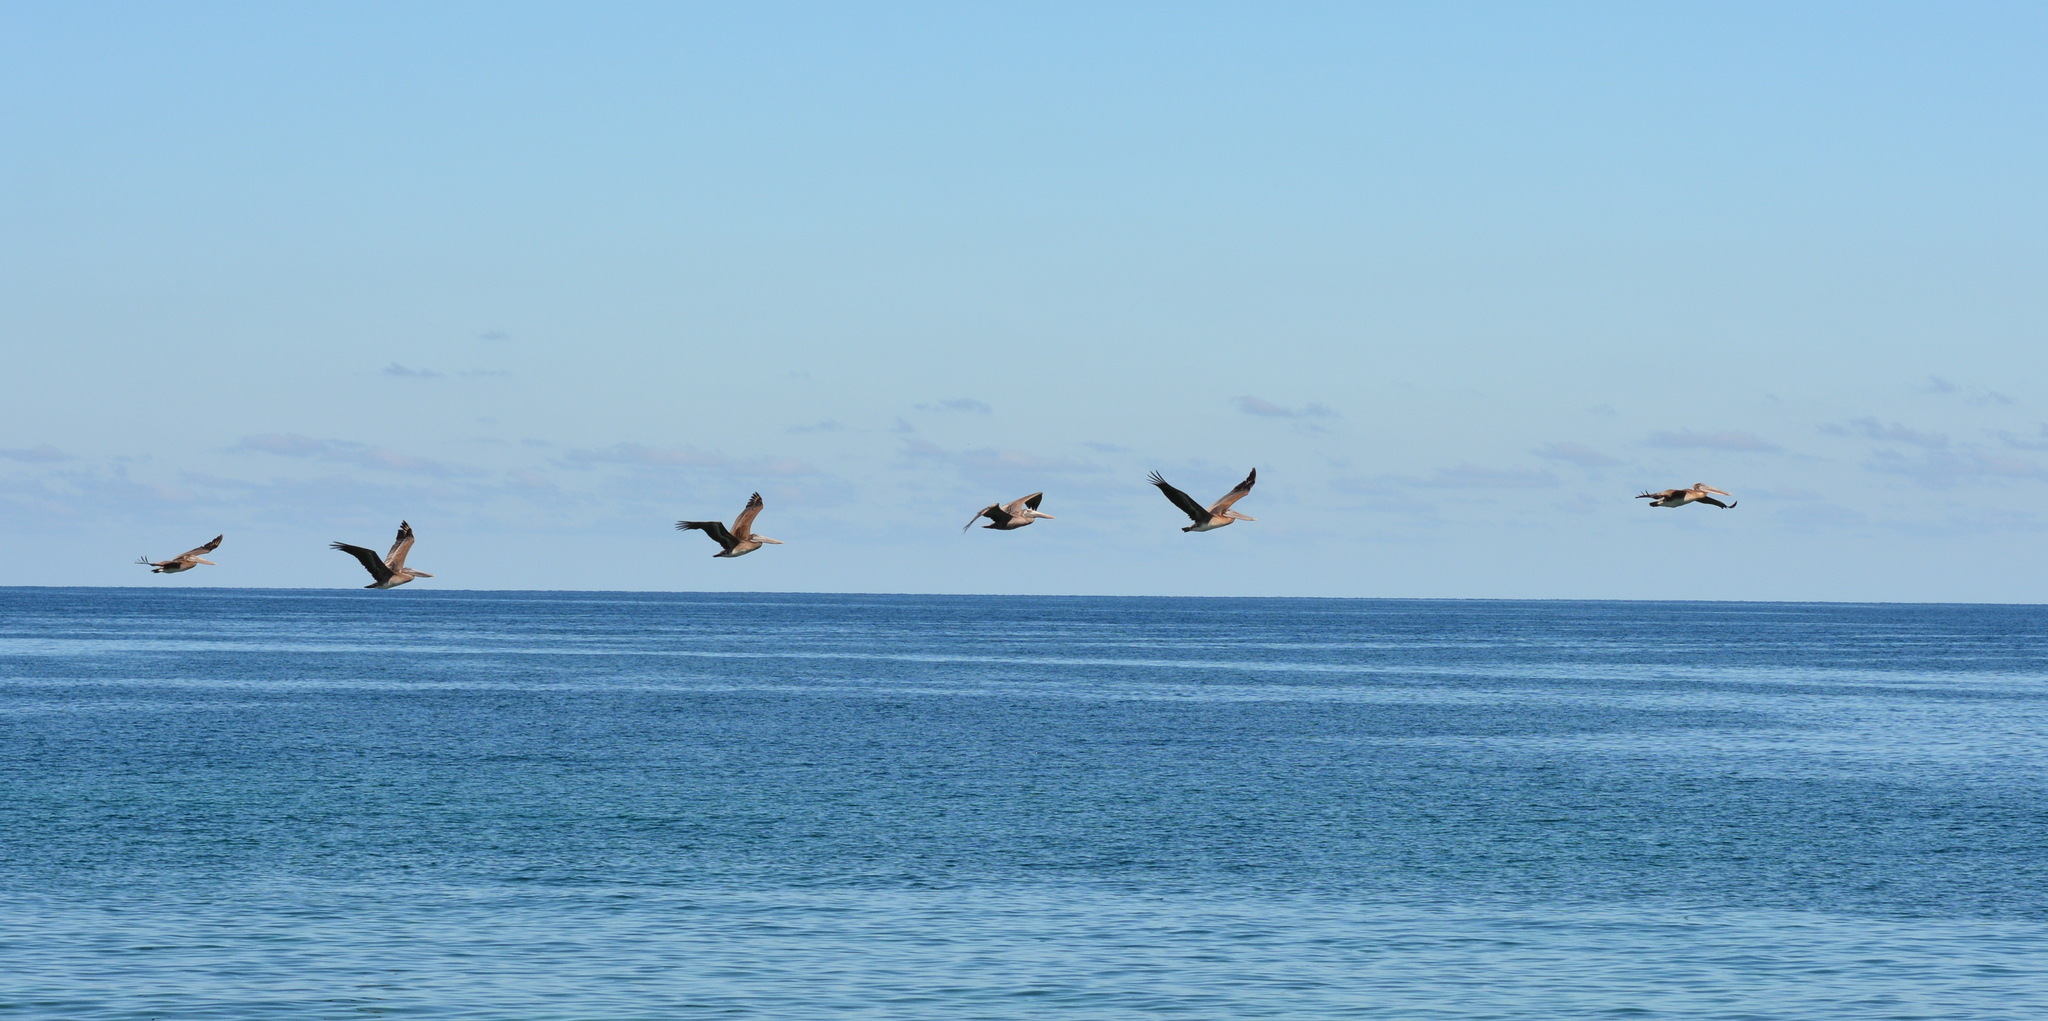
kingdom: Animalia
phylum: Chordata
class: Aves
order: Pelecaniformes
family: Pelecanidae
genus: Pelecanus
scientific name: Pelecanus occidentalis
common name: Brown pelican
